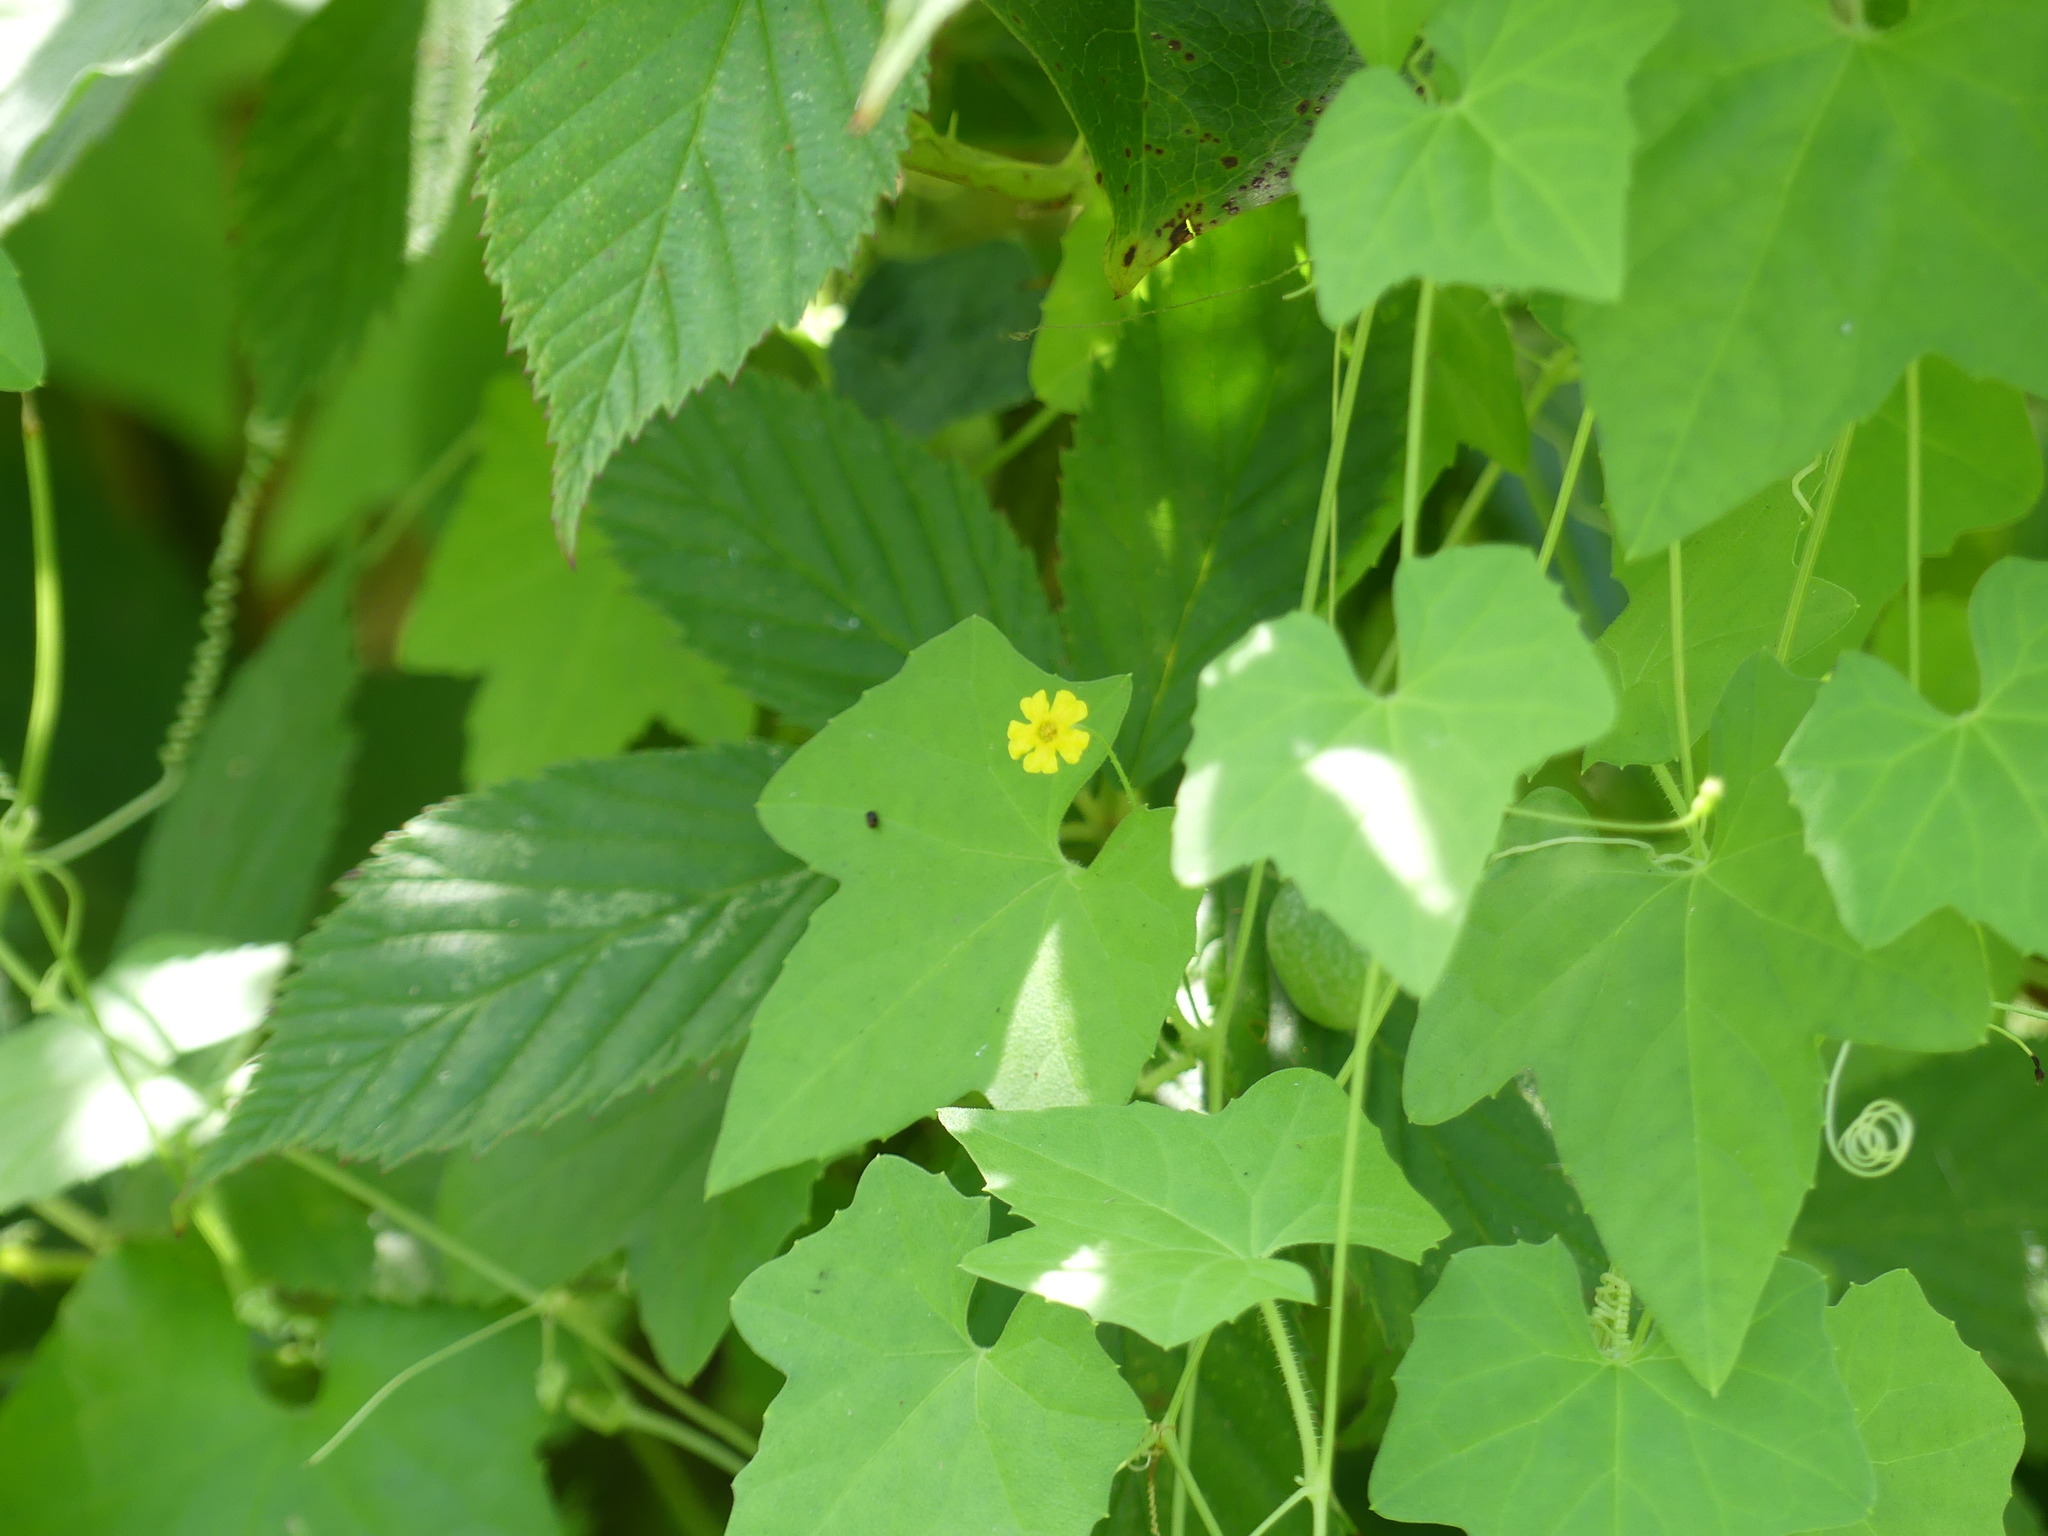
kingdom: Plantae
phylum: Tracheophyta
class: Magnoliopsida
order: Cucurbitales
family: Cucurbitaceae
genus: Melothria
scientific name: Melothria pendula
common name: Creeping-cucumber
